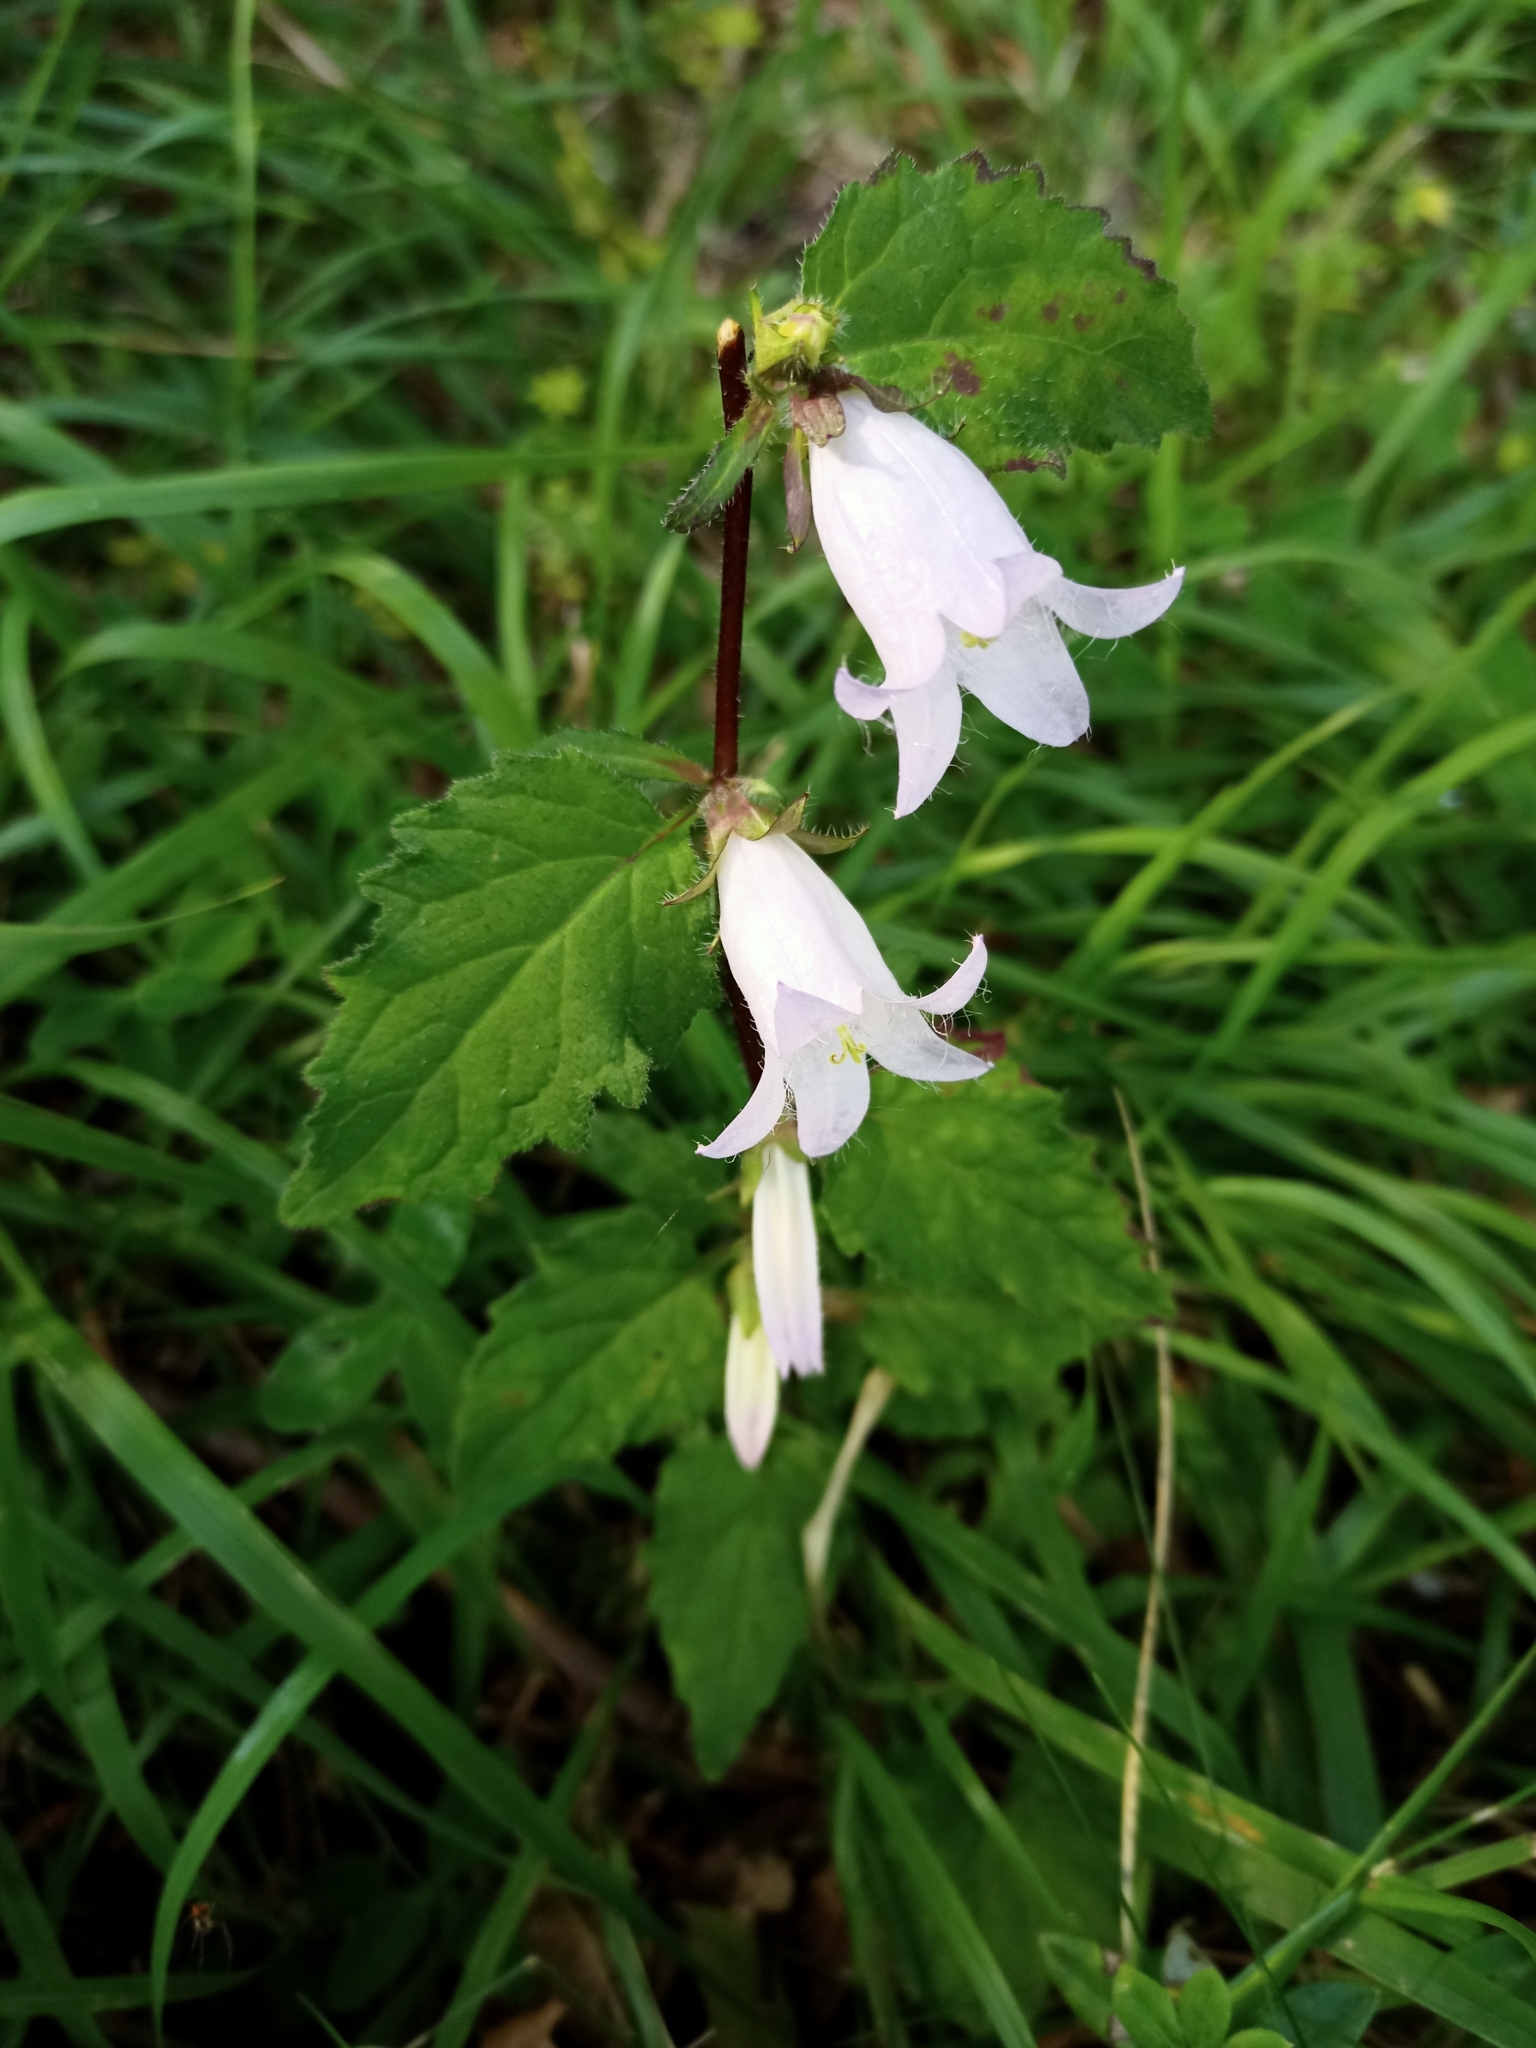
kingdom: Plantae
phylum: Tracheophyta
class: Magnoliopsida
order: Asterales
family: Campanulaceae
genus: Campanula
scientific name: Campanula trachelium
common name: Nettle-leaved bellflower
